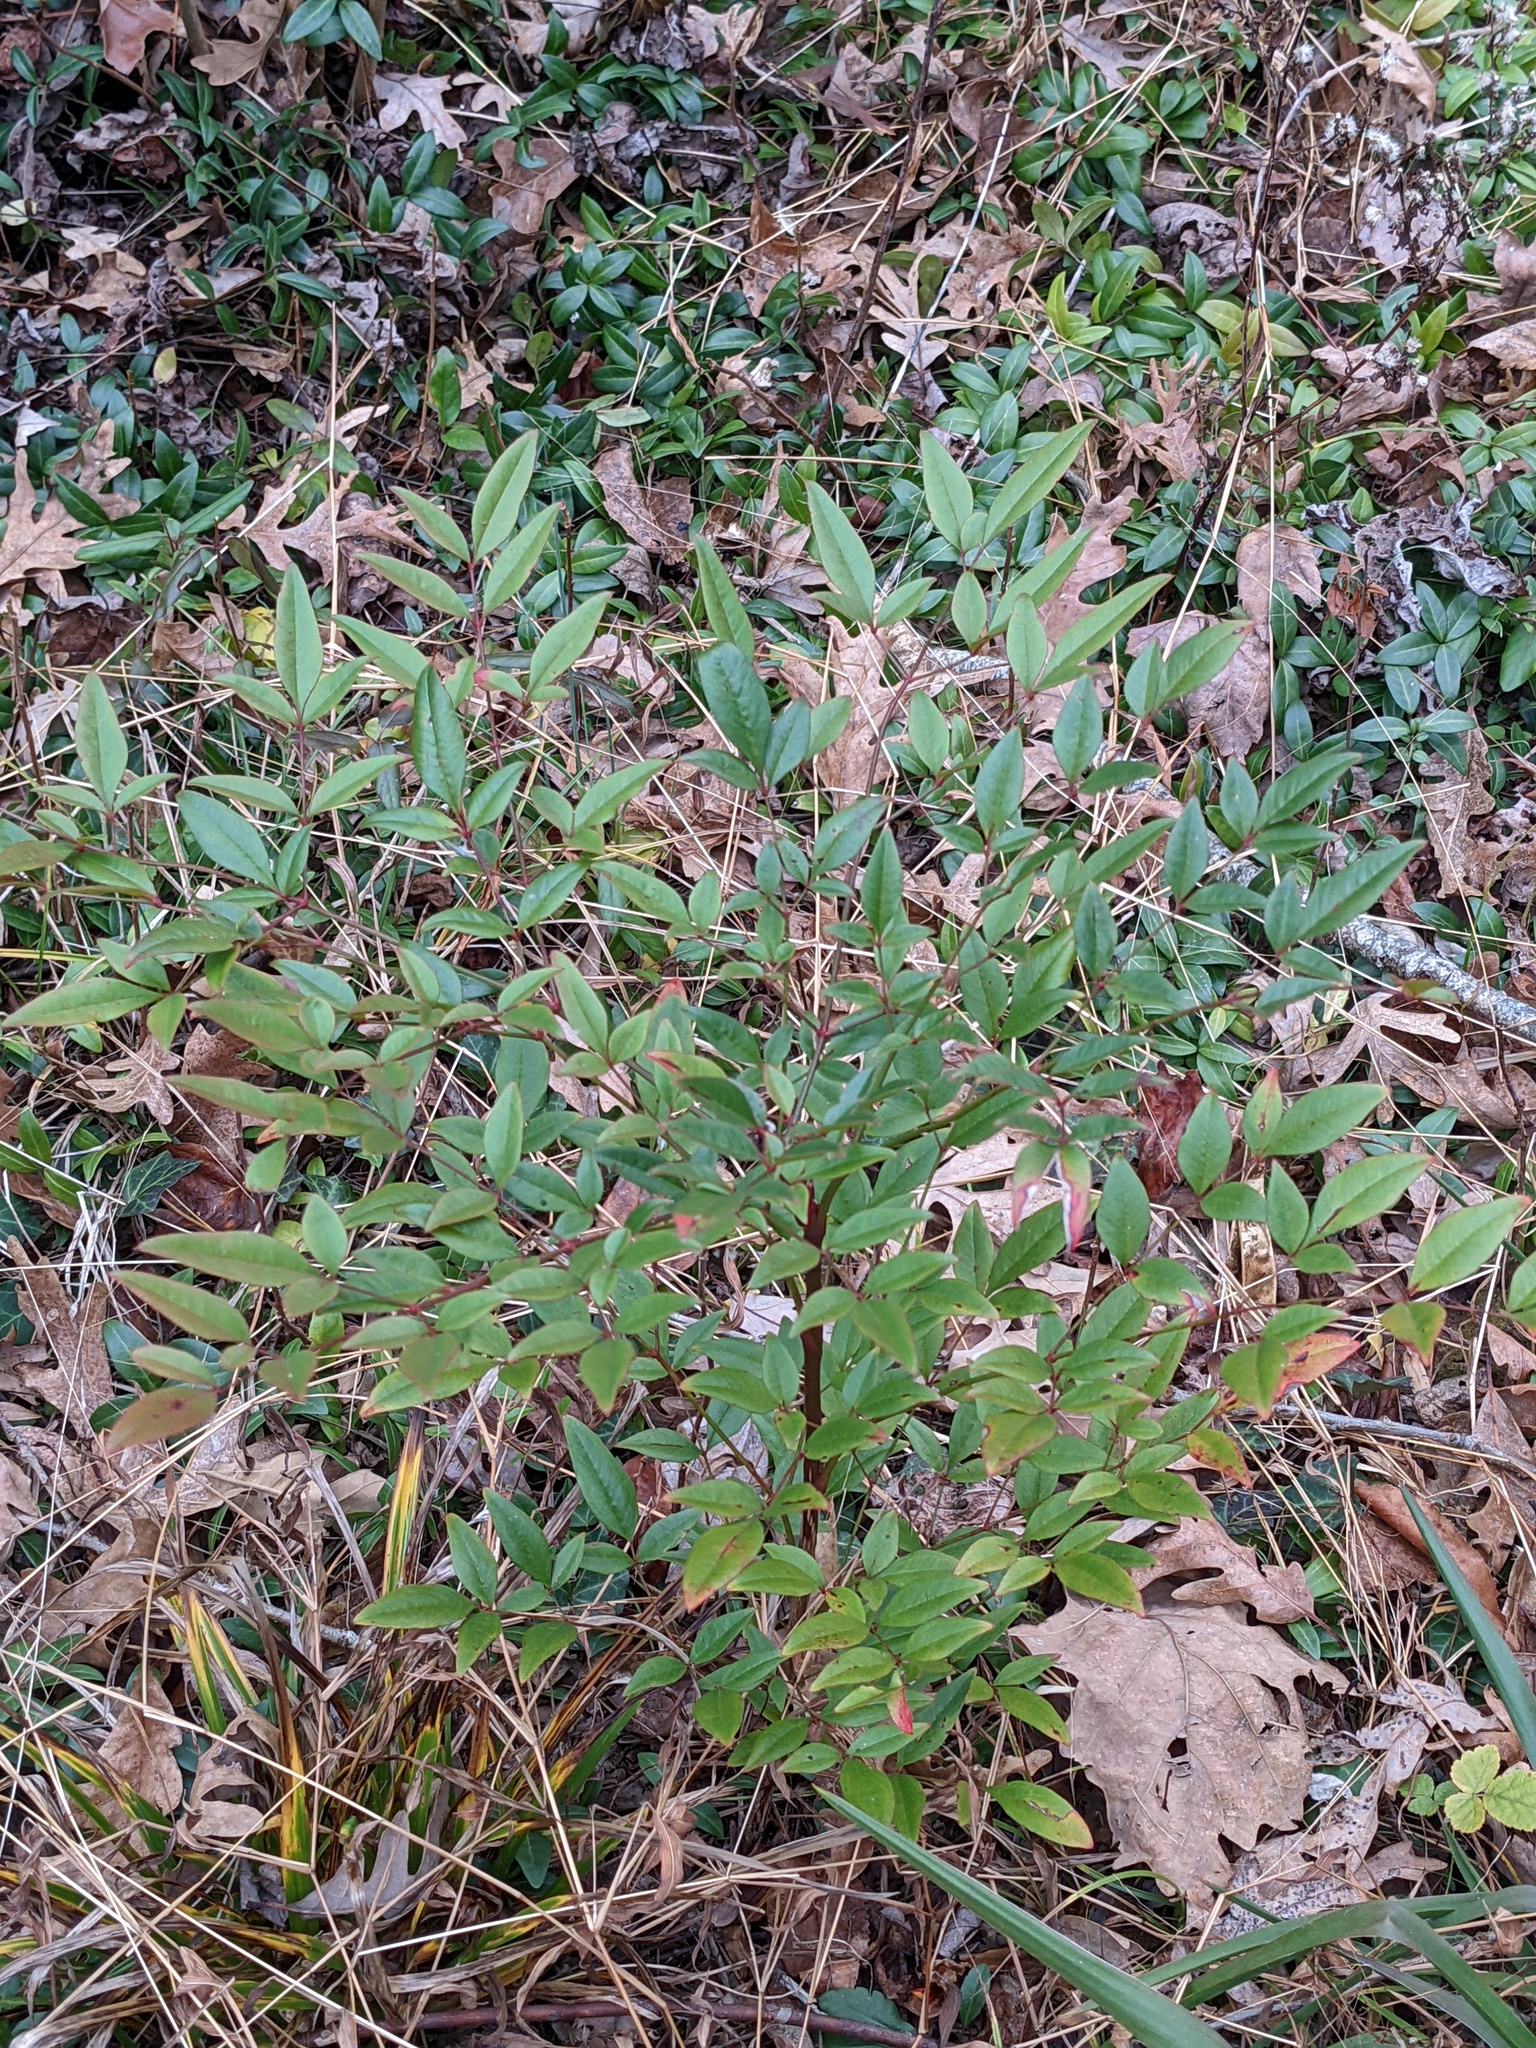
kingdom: Plantae
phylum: Tracheophyta
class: Magnoliopsida
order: Ranunculales
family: Berberidaceae
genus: Nandina
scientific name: Nandina domestica
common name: Sacred bamboo
